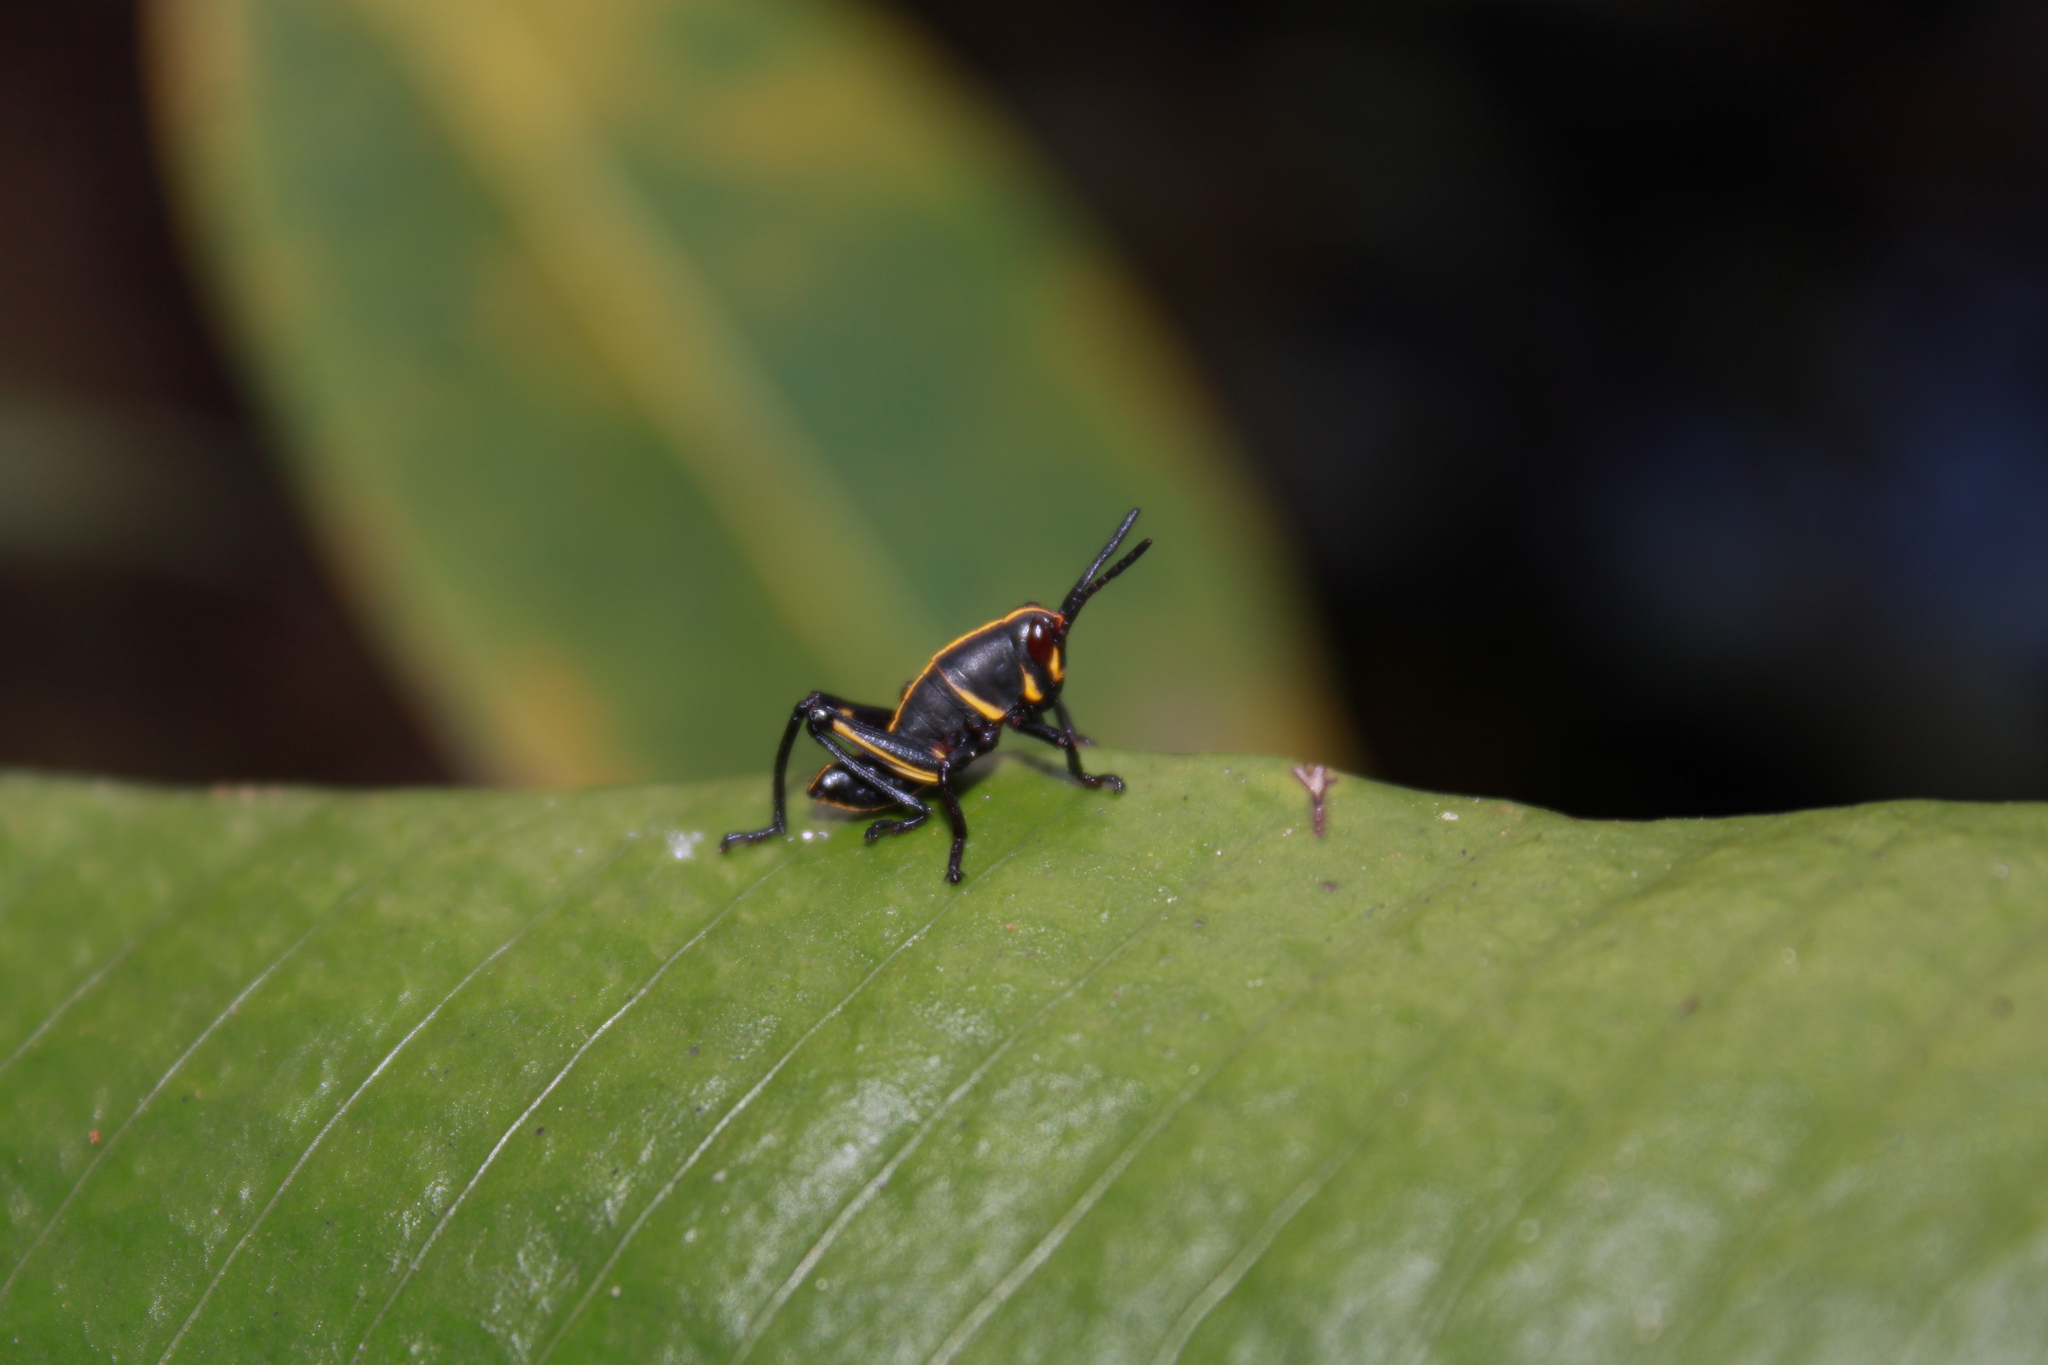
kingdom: Animalia
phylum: Arthropoda
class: Insecta
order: Orthoptera
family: Romaleidae
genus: Romalea
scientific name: Romalea microptera
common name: Eastern lubber grasshopper
